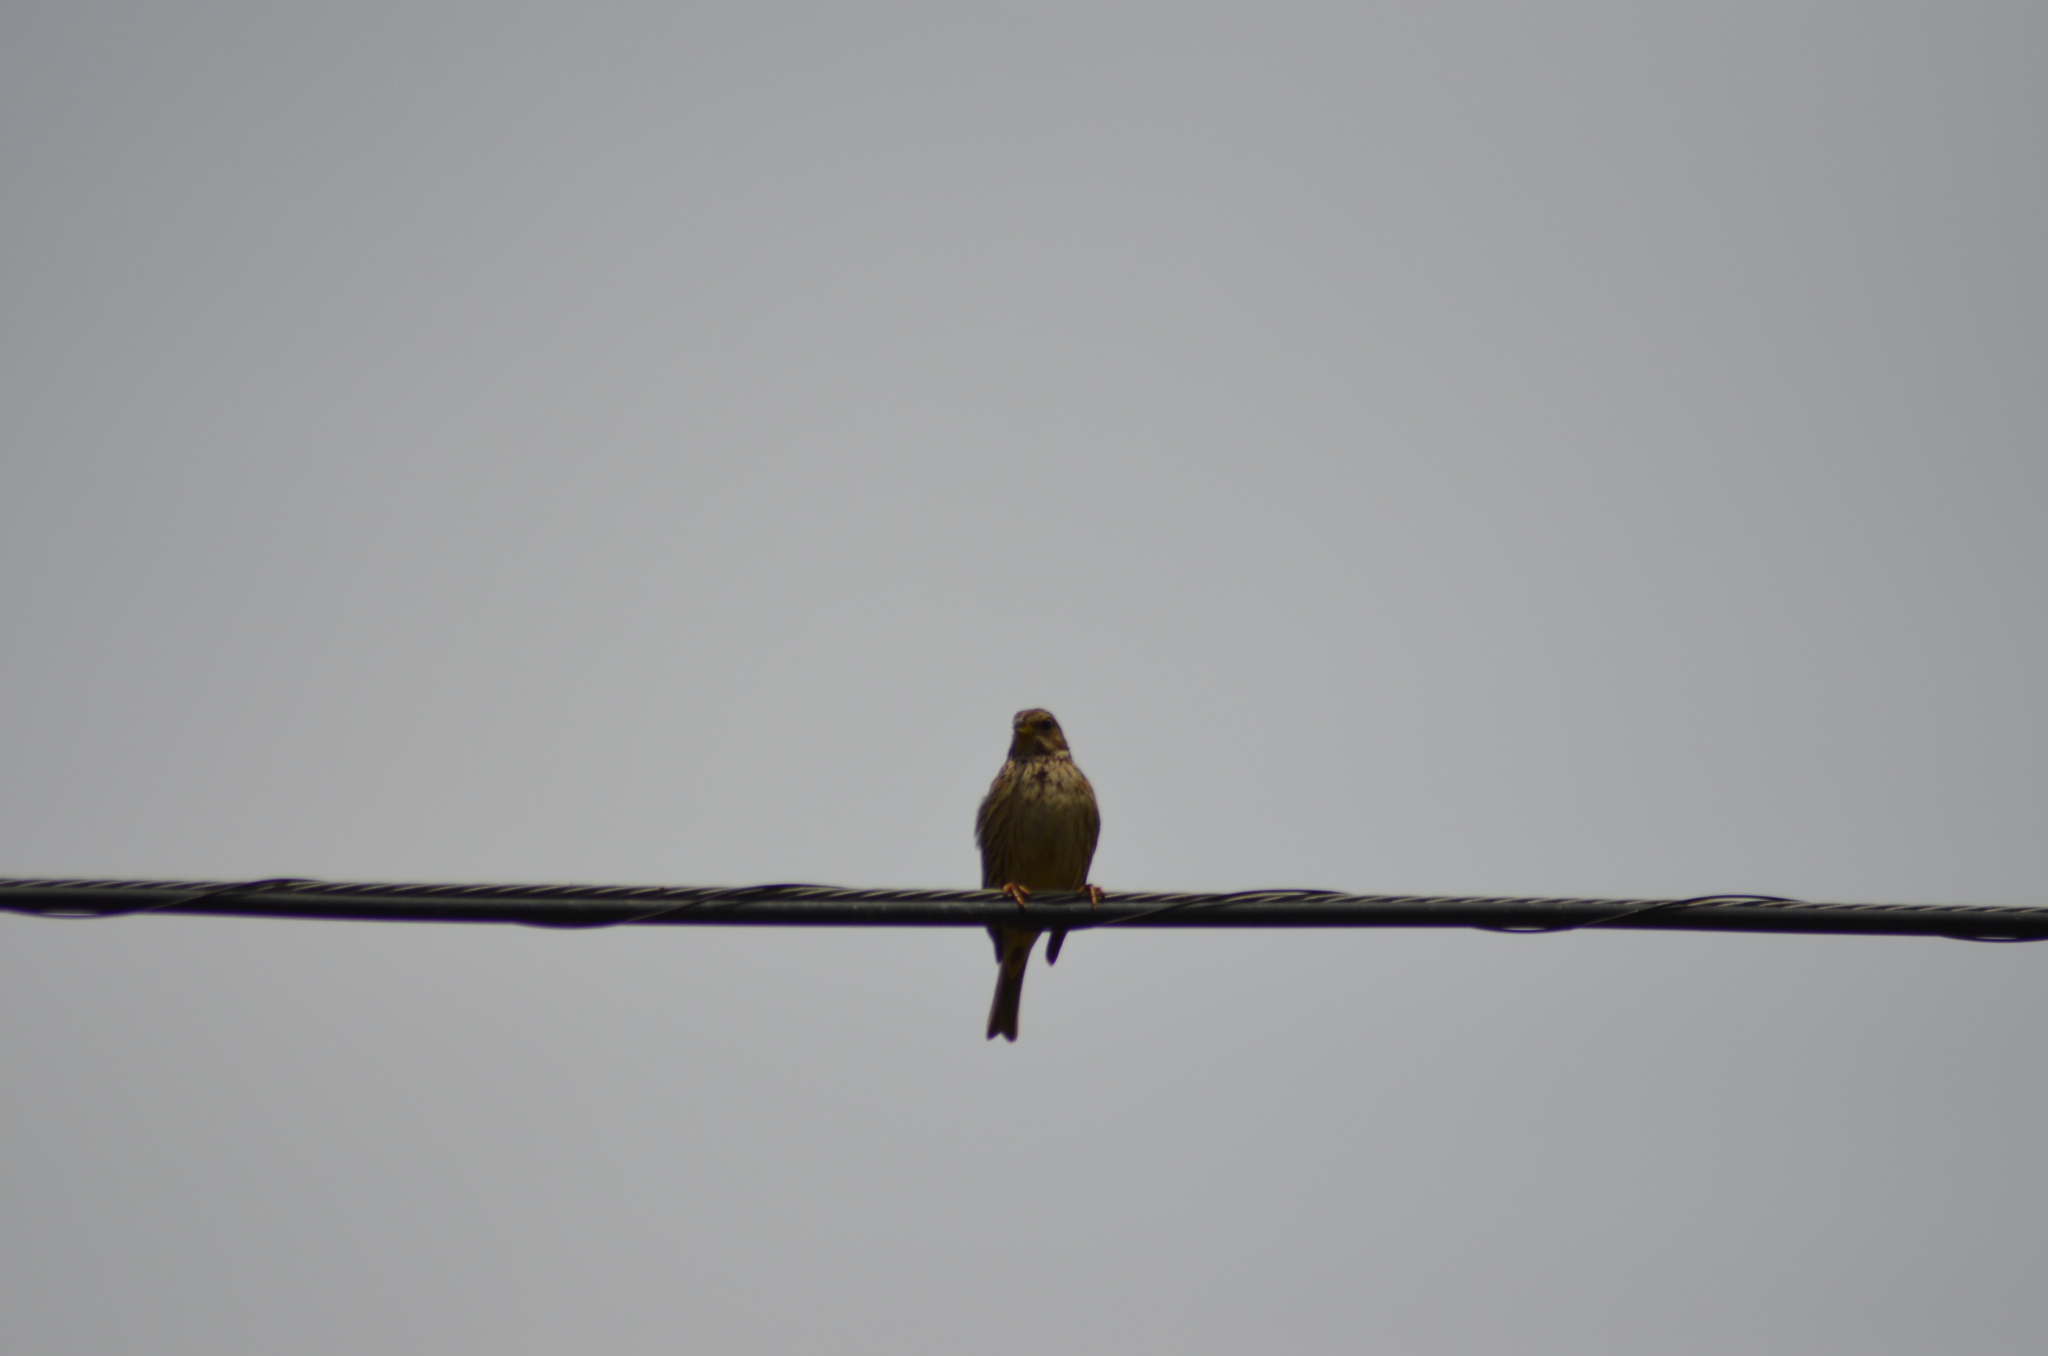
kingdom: Animalia
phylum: Chordata
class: Aves
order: Passeriformes
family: Emberizidae
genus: Emberiza
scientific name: Emberiza calandra
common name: Corn bunting
